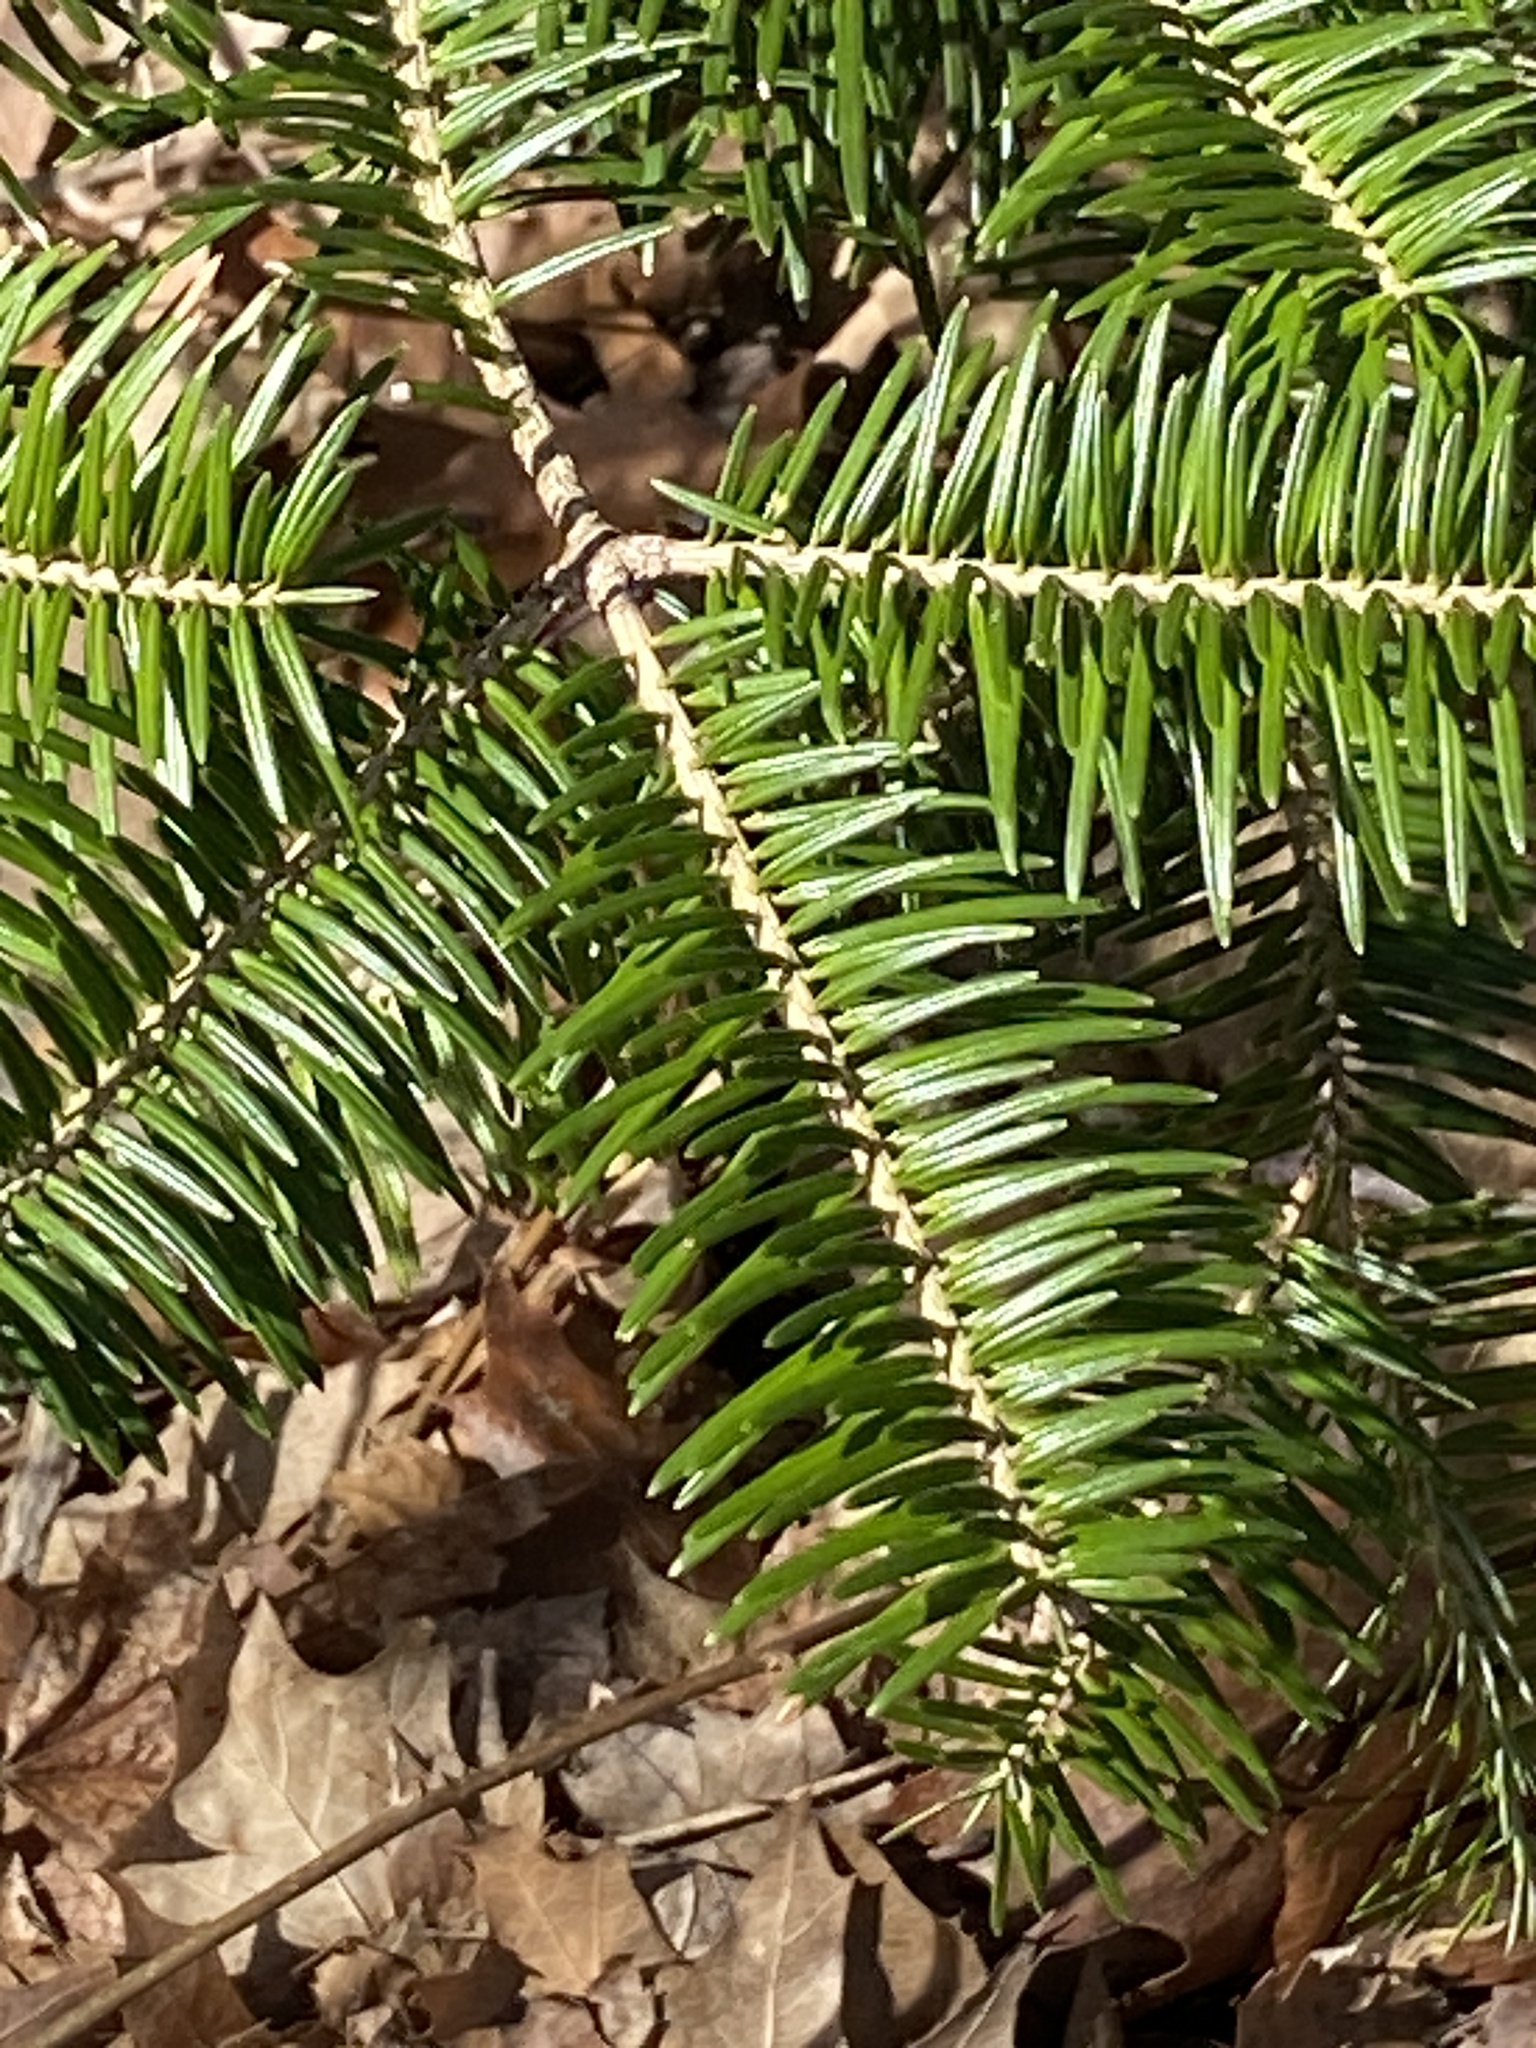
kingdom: Plantae
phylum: Tracheophyta
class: Pinopsida
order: Pinales
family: Pinaceae
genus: Abies
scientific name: Abies balsamea
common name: Balsam fir
